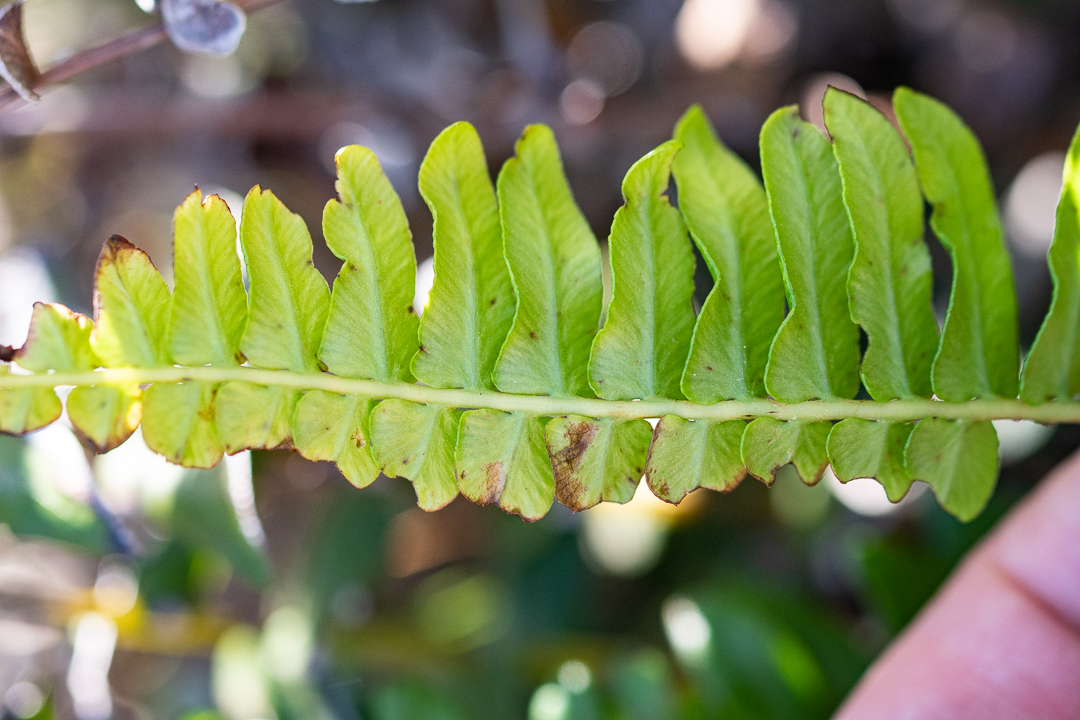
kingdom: Plantae
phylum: Tracheophyta
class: Polypodiopsida
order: Polypodiales
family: Nephrolepidaceae
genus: Nephrolepis
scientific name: Nephrolepis cordifolia
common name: Narrow swordfern
